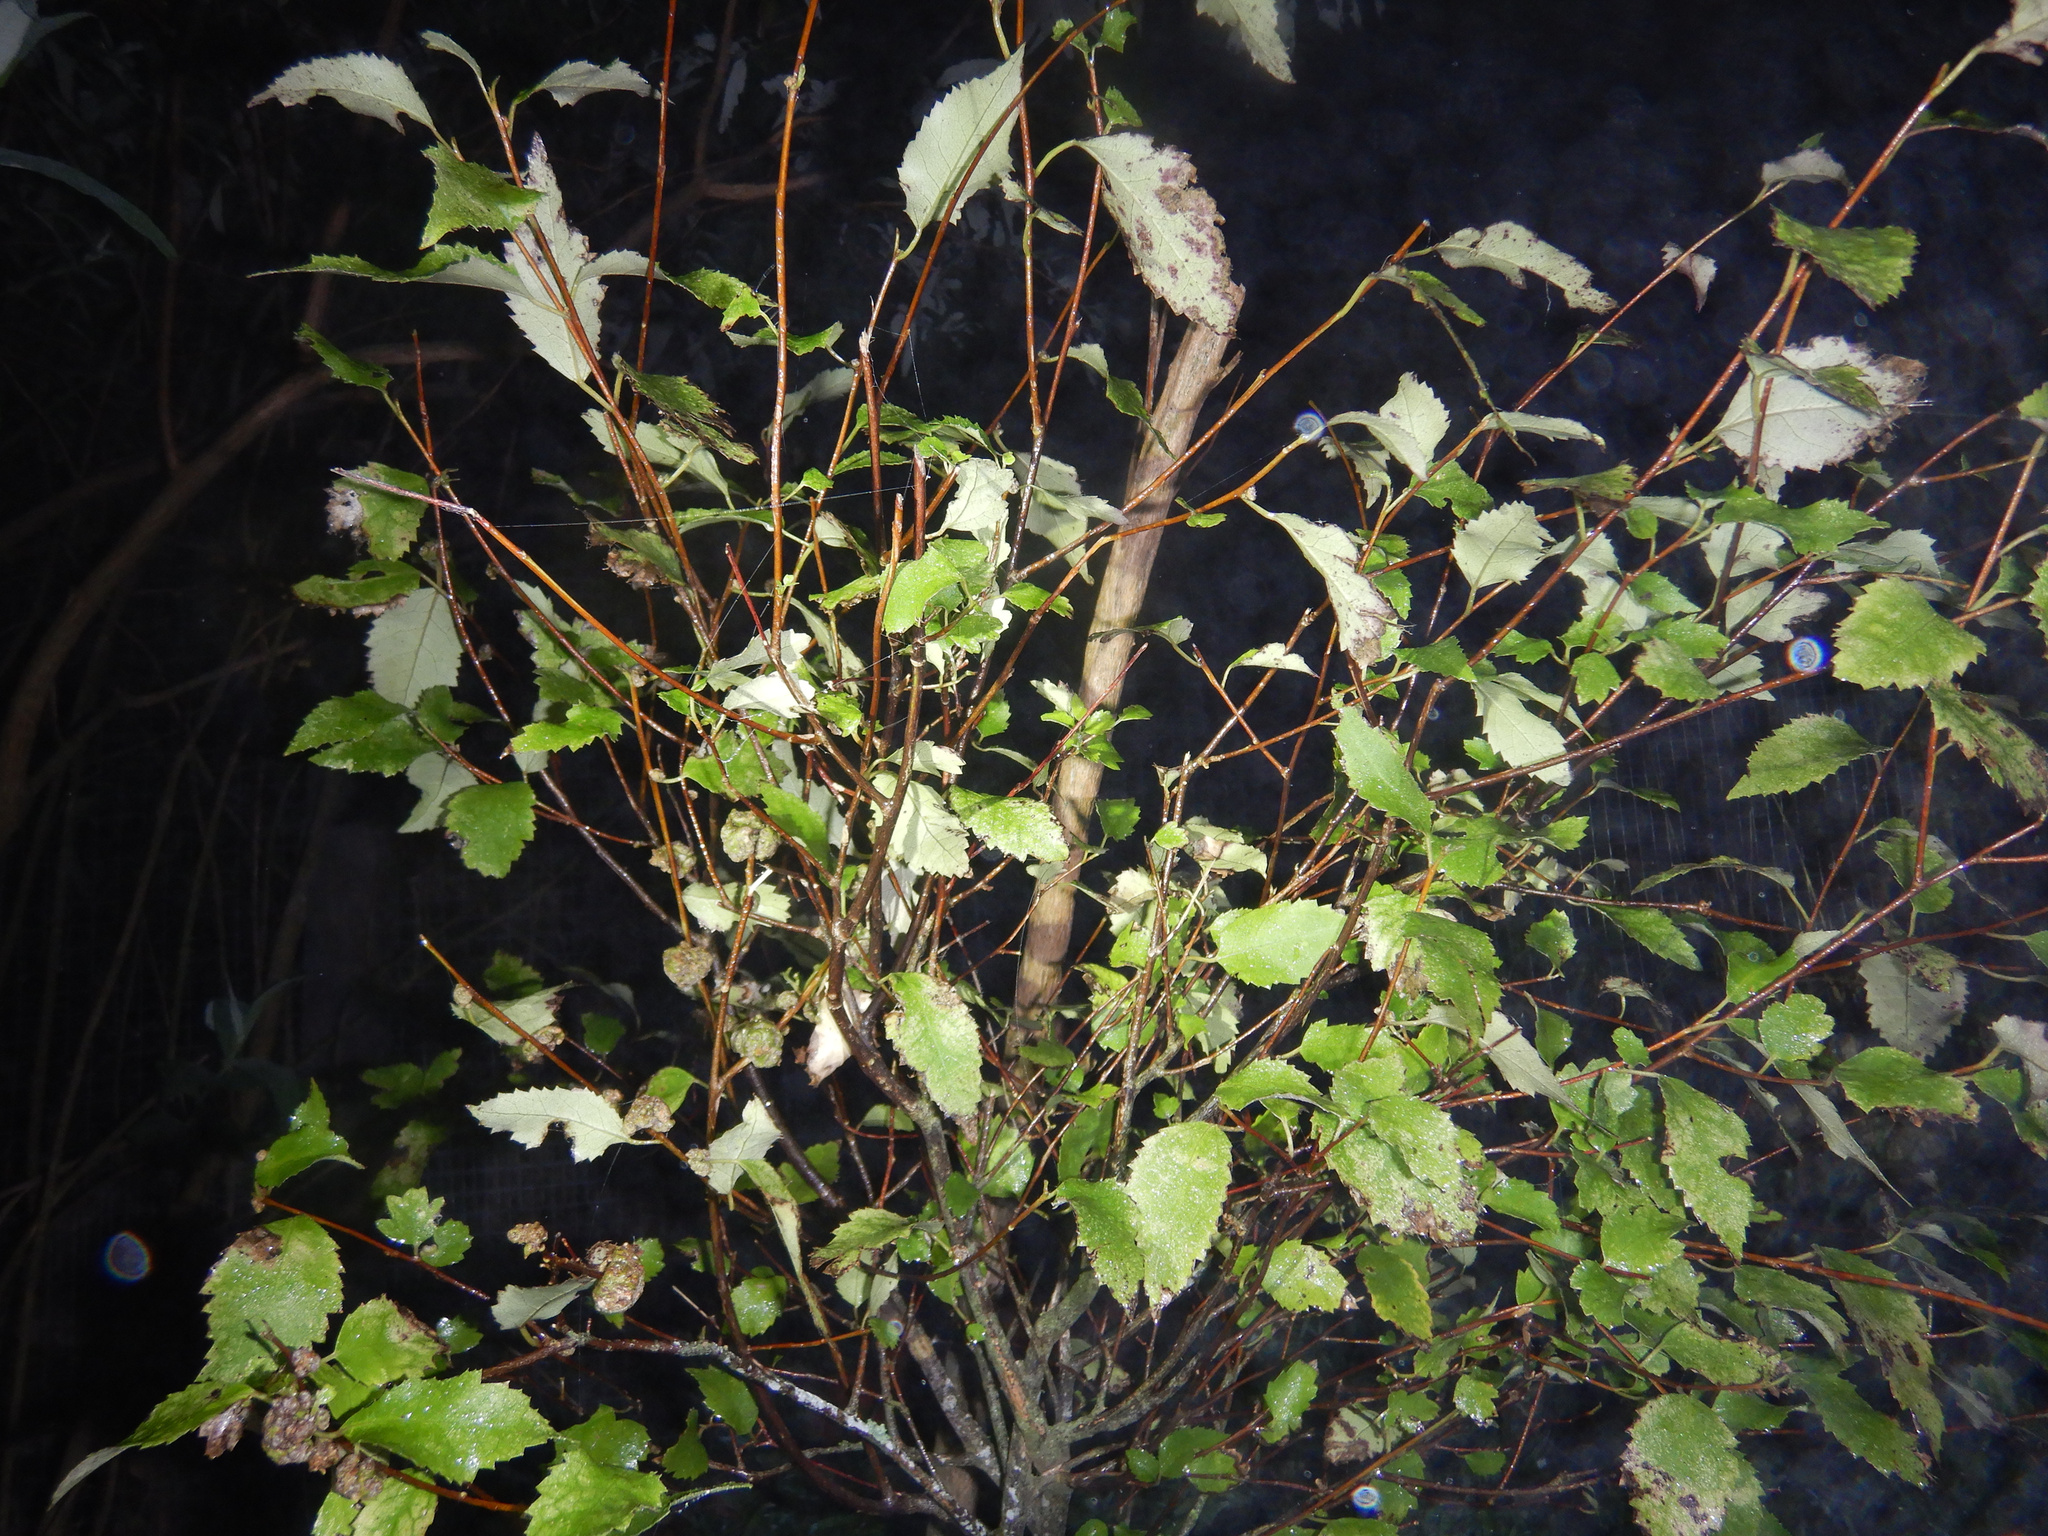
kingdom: Plantae
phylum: Tracheophyta
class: Magnoliopsida
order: Malvales
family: Malvaceae
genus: Hoheria
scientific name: Hoheria populnea
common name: Lacebark
